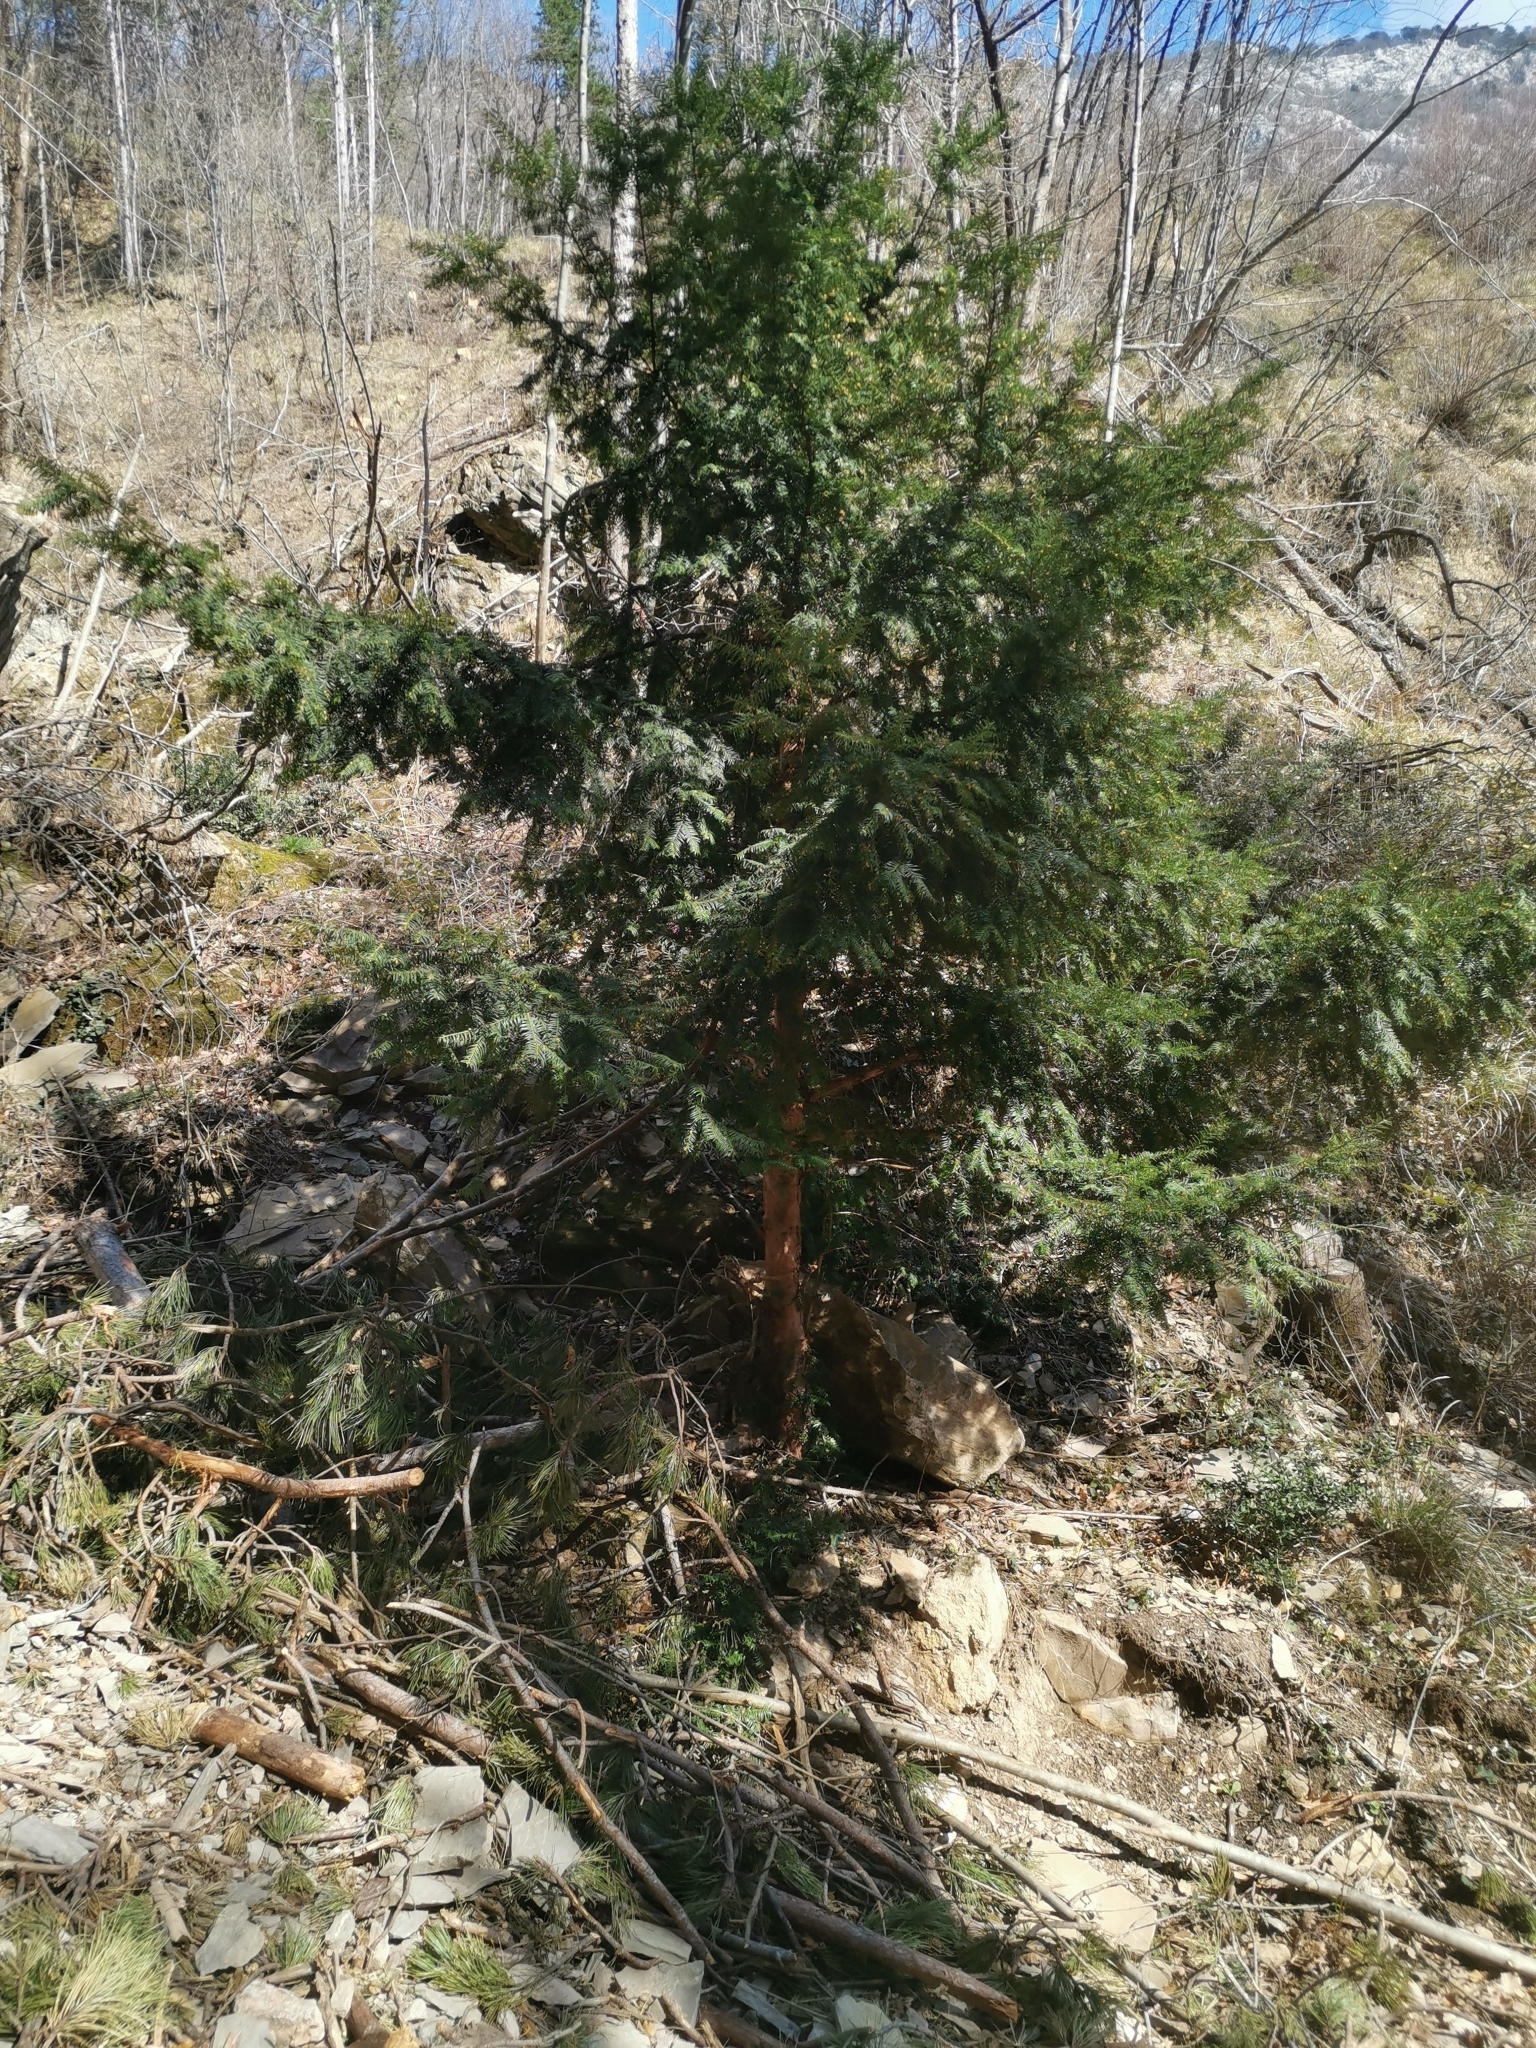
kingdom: Plantae
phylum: Tracheophyta
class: Pinopsida
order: Pinales
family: Taxaceae
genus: Taxus
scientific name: Taxus baccata
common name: Yew
